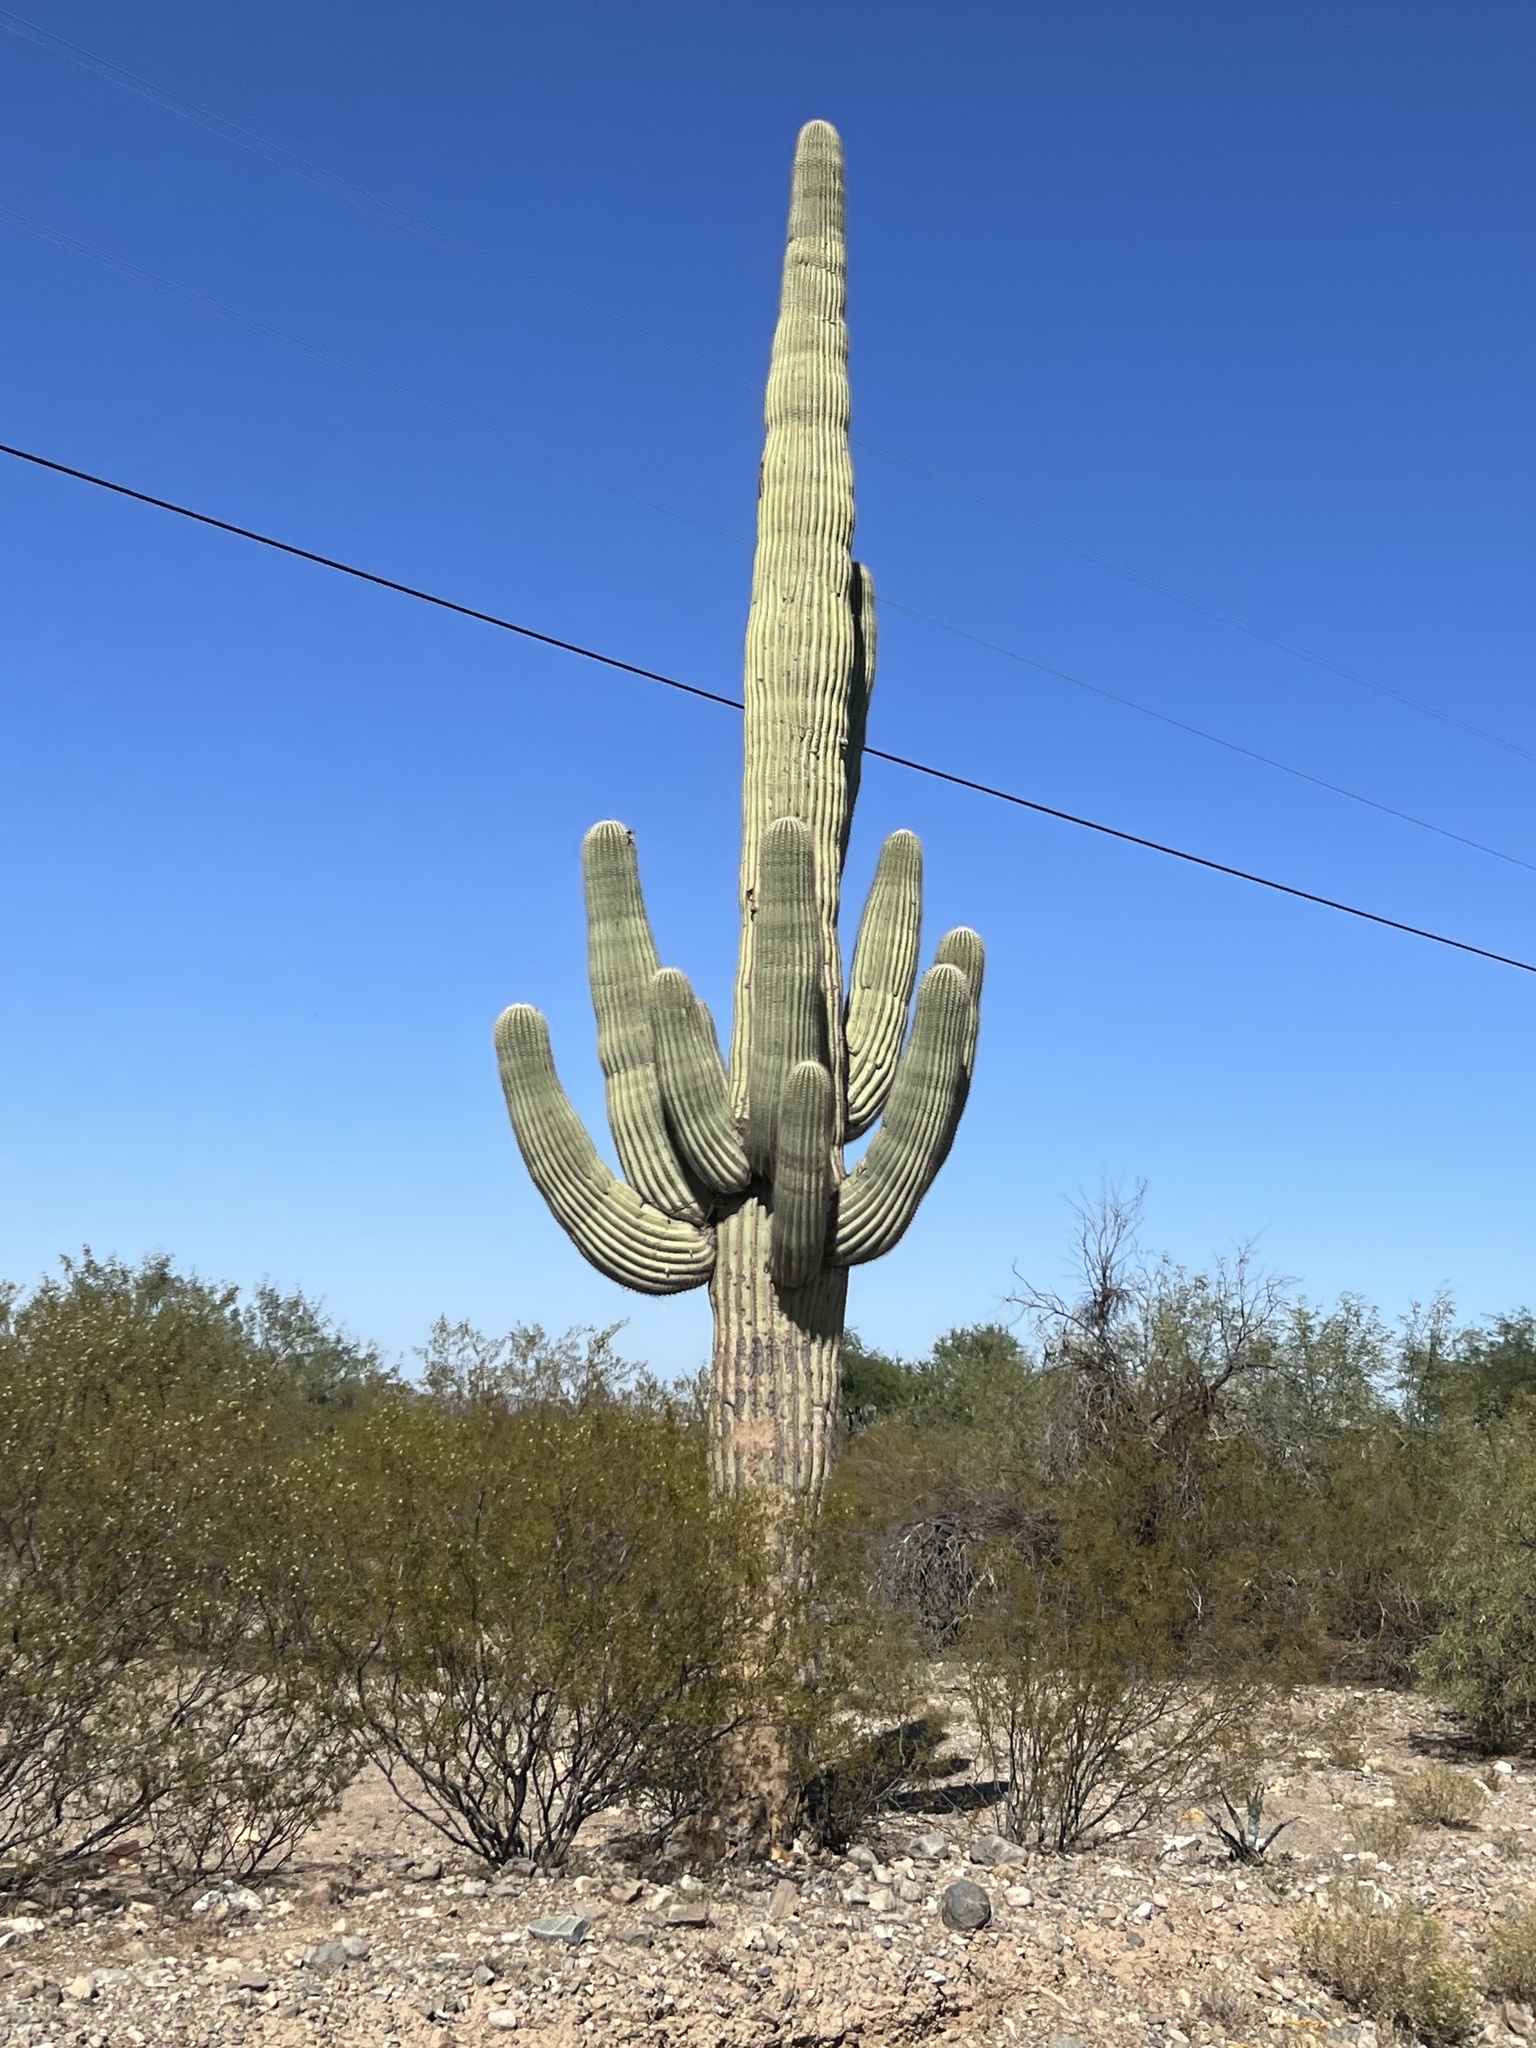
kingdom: Plantae
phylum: Tracheophyta
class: Magnoliopsida
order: Caryophyllales
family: Cactaceae
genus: Carnegiea
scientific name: Carnegiea gigantea
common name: Saguaro
